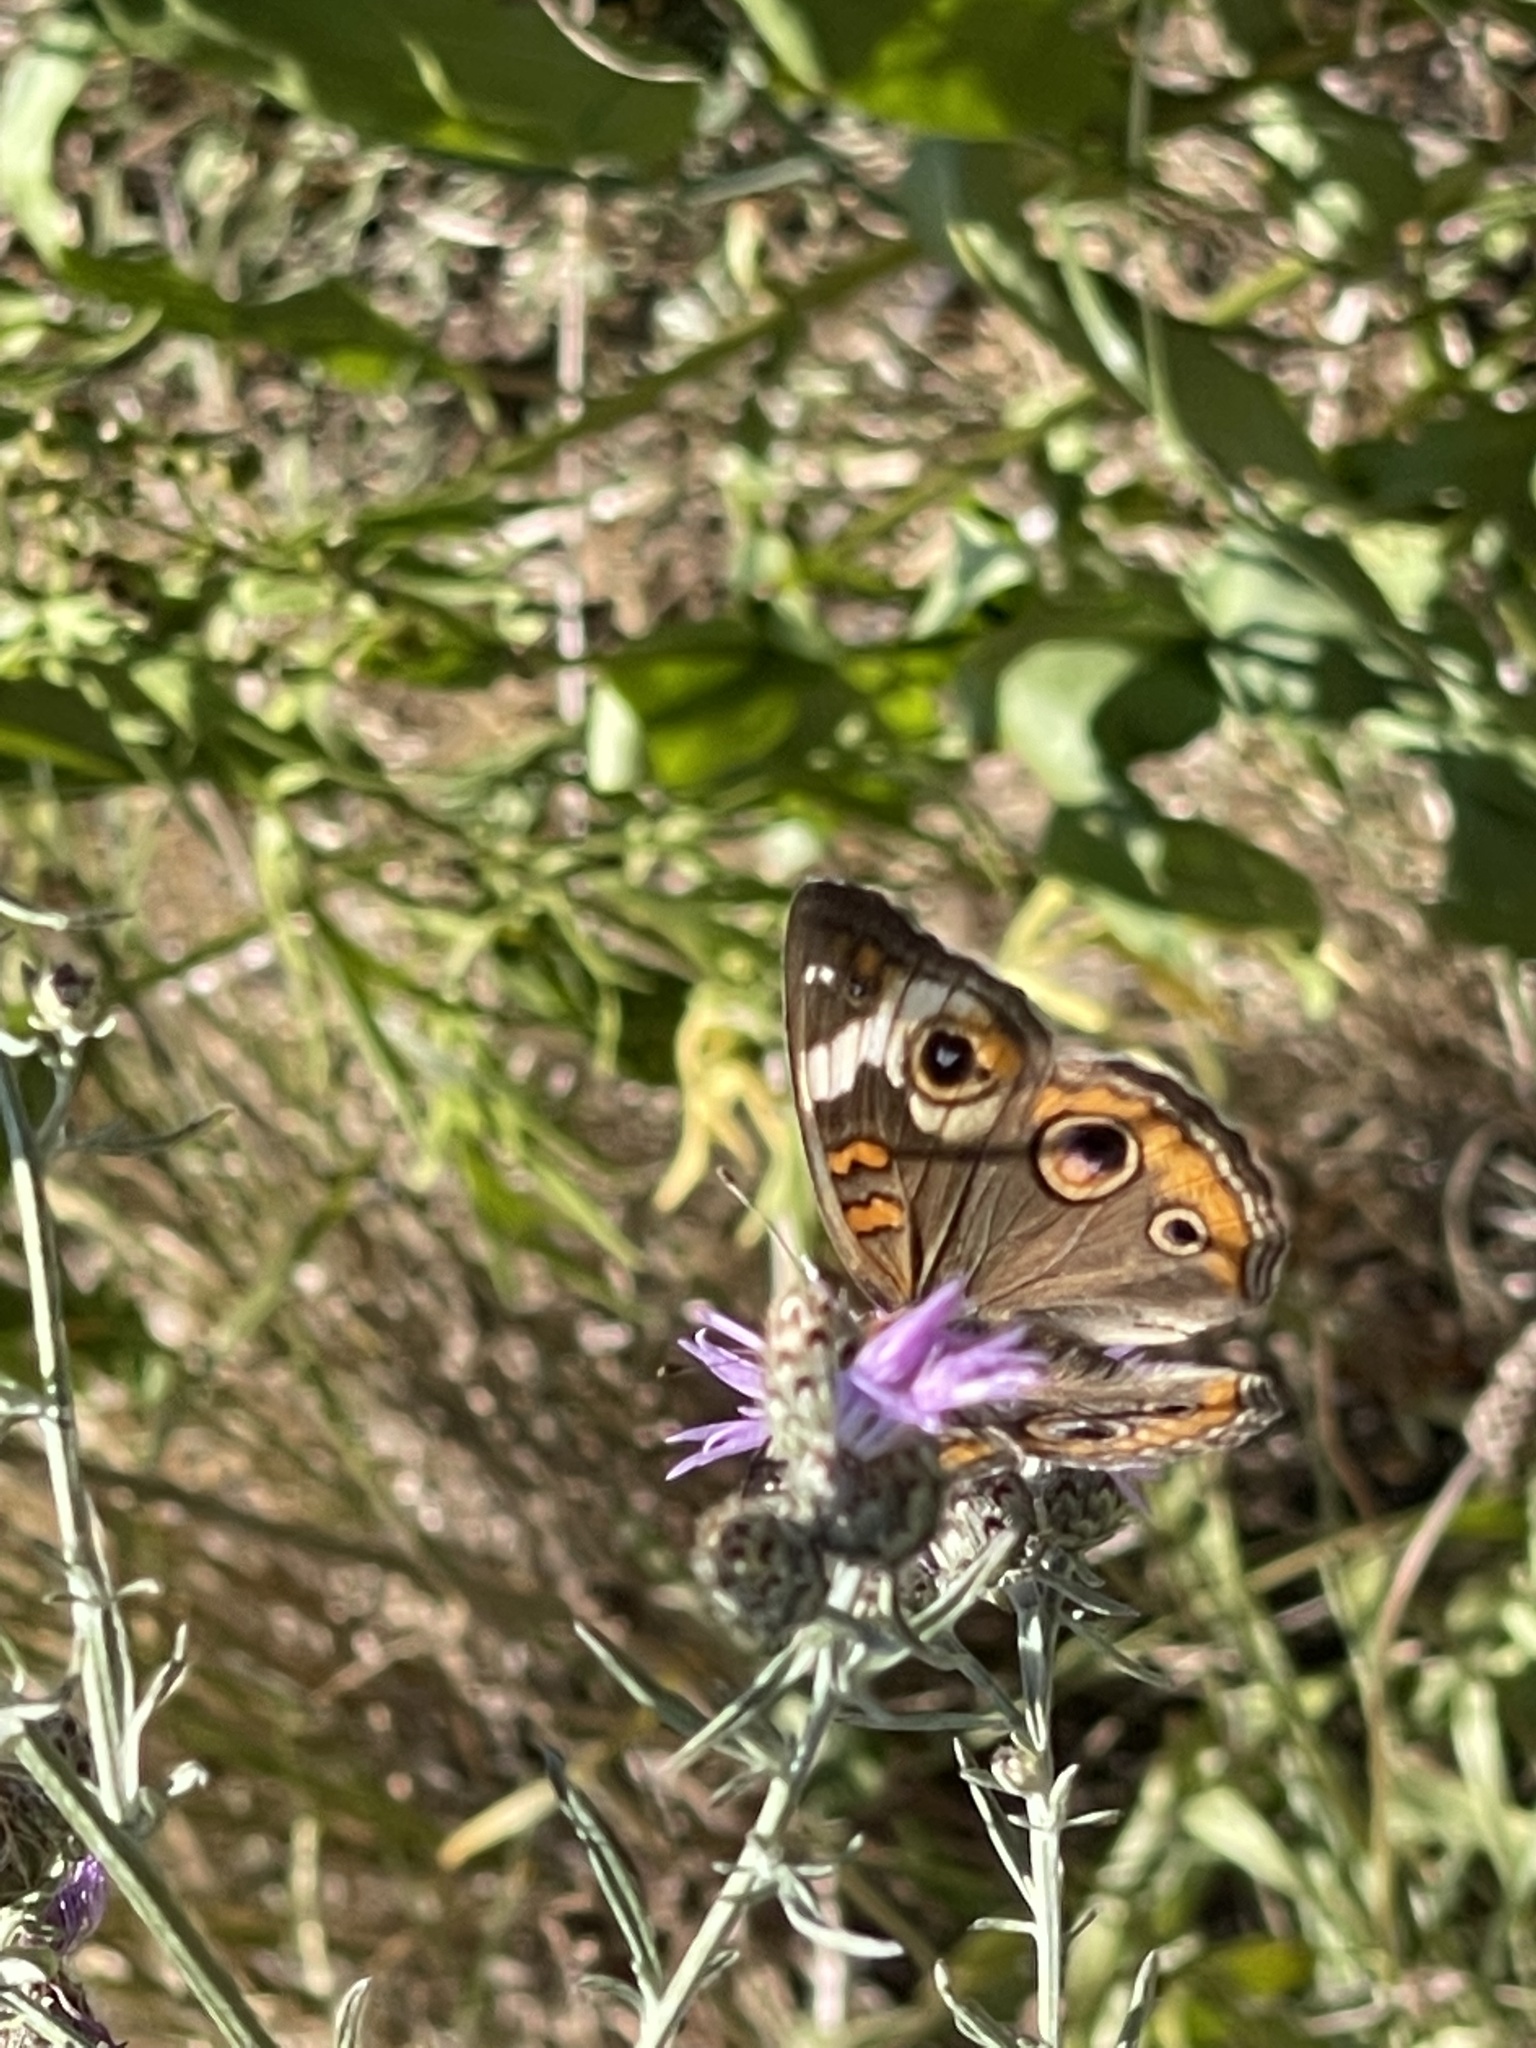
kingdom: Animalia
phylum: Arthropoda
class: Insecta
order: Lepidoptera
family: Nymphalidae
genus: Junonia
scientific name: Junonia coenia
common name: Common buckeye
